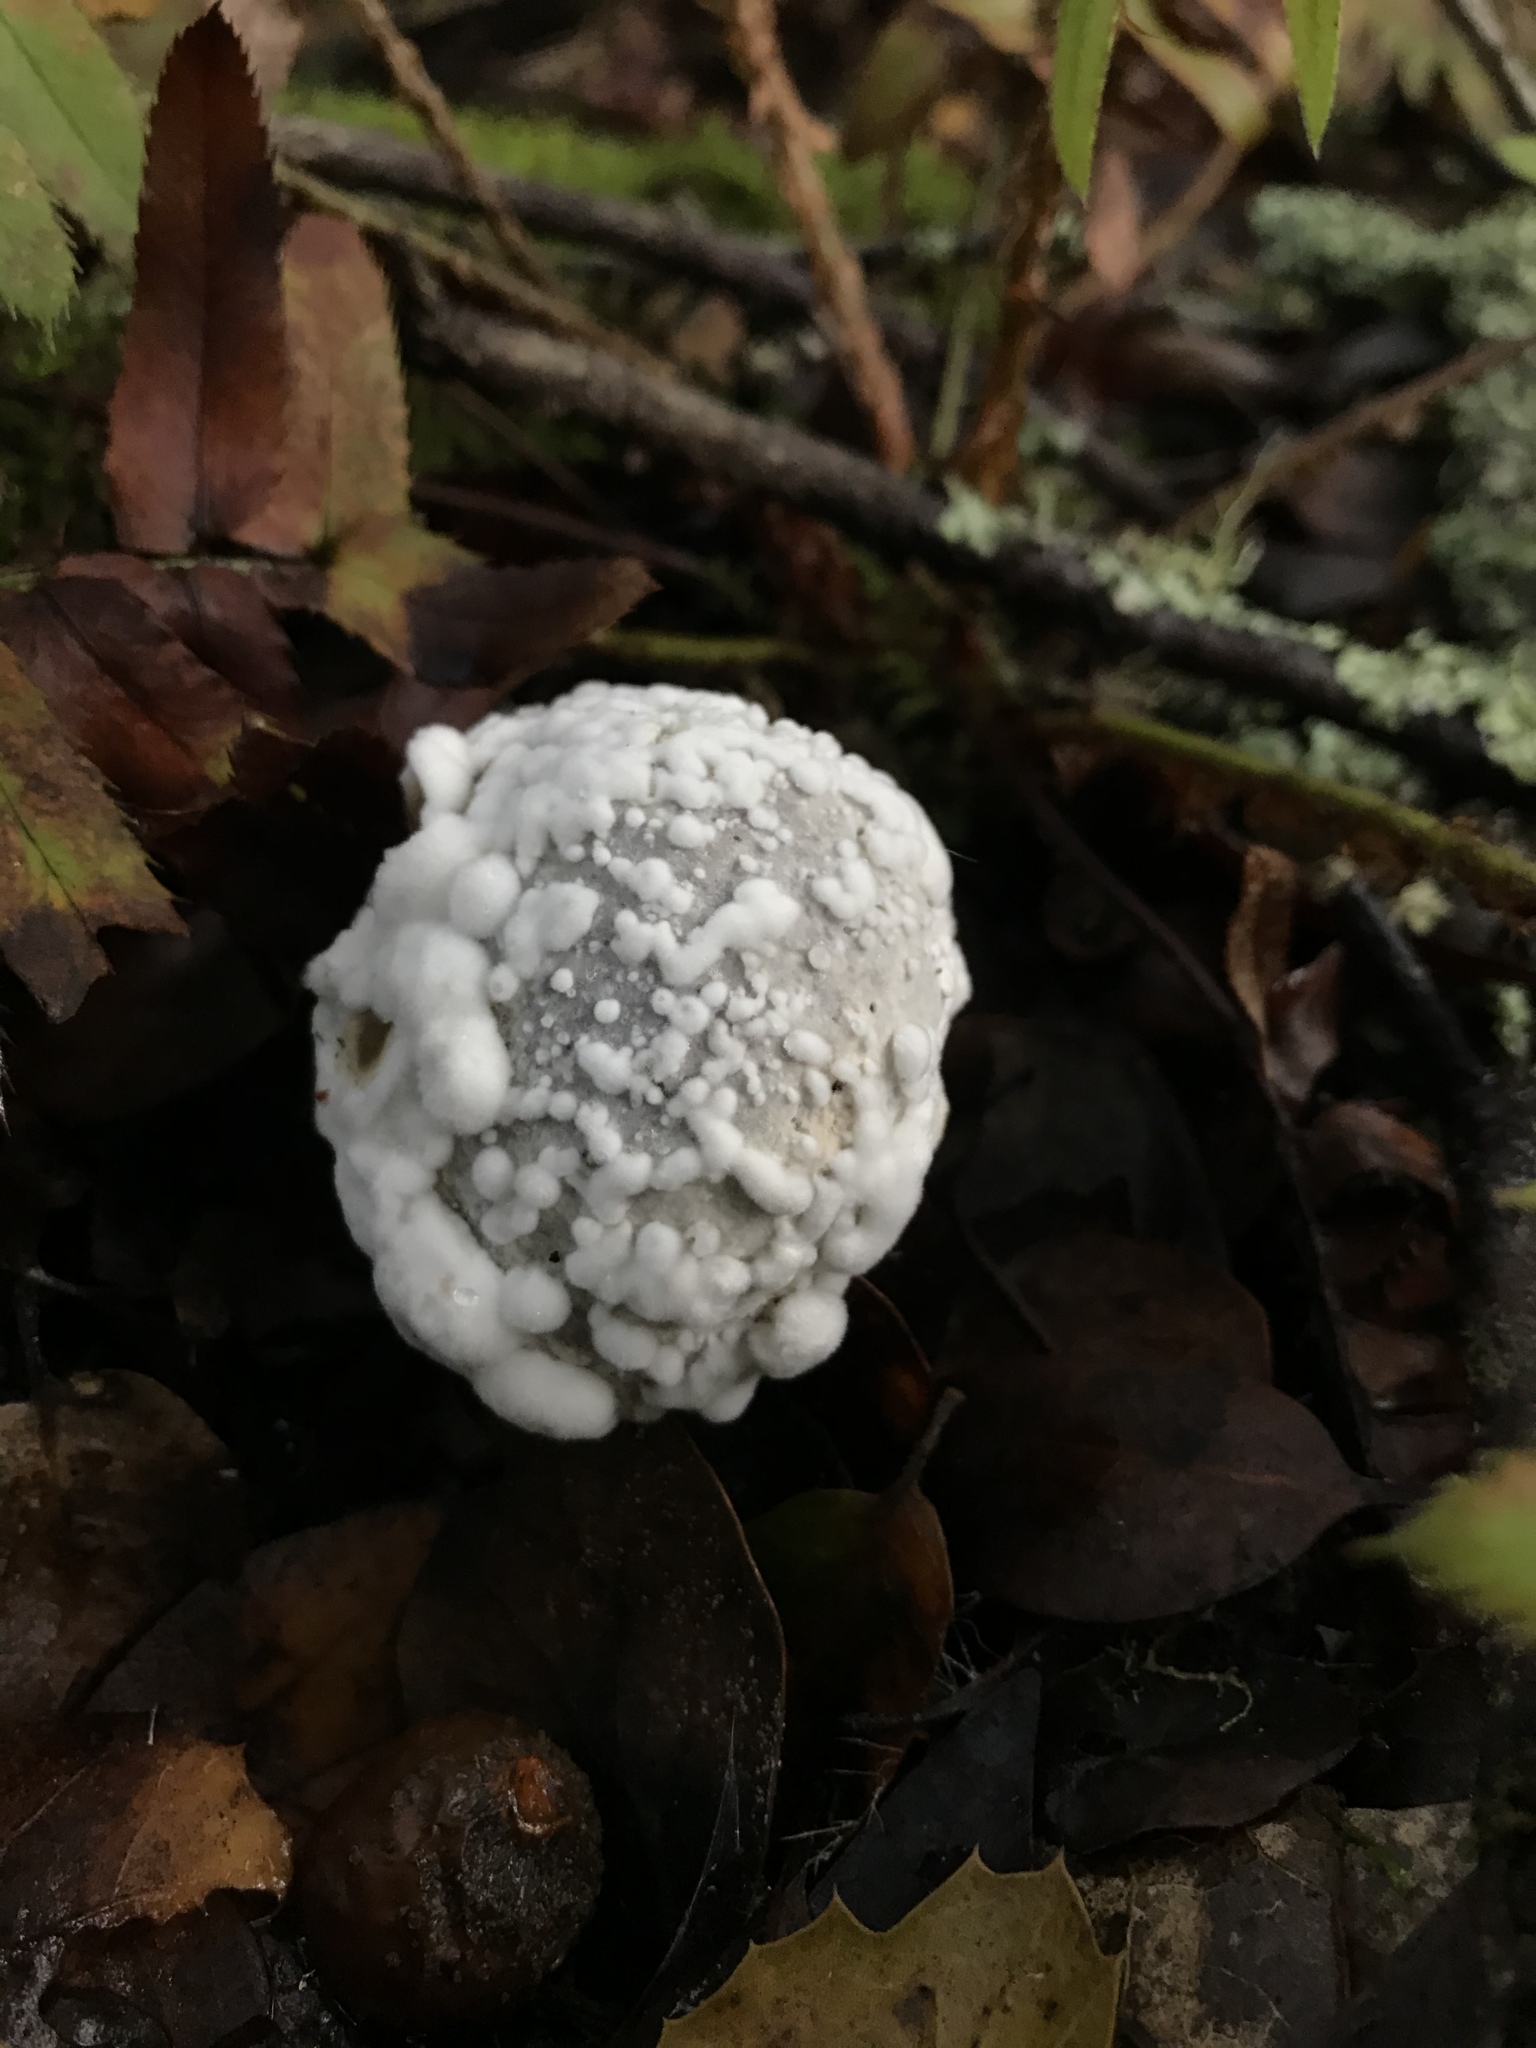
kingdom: Fungi
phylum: Ascomycota
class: Sordariomycetes
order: Hypocreales
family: Hypocreaceae
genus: Hypomyces
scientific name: Hypomyces microspermus
